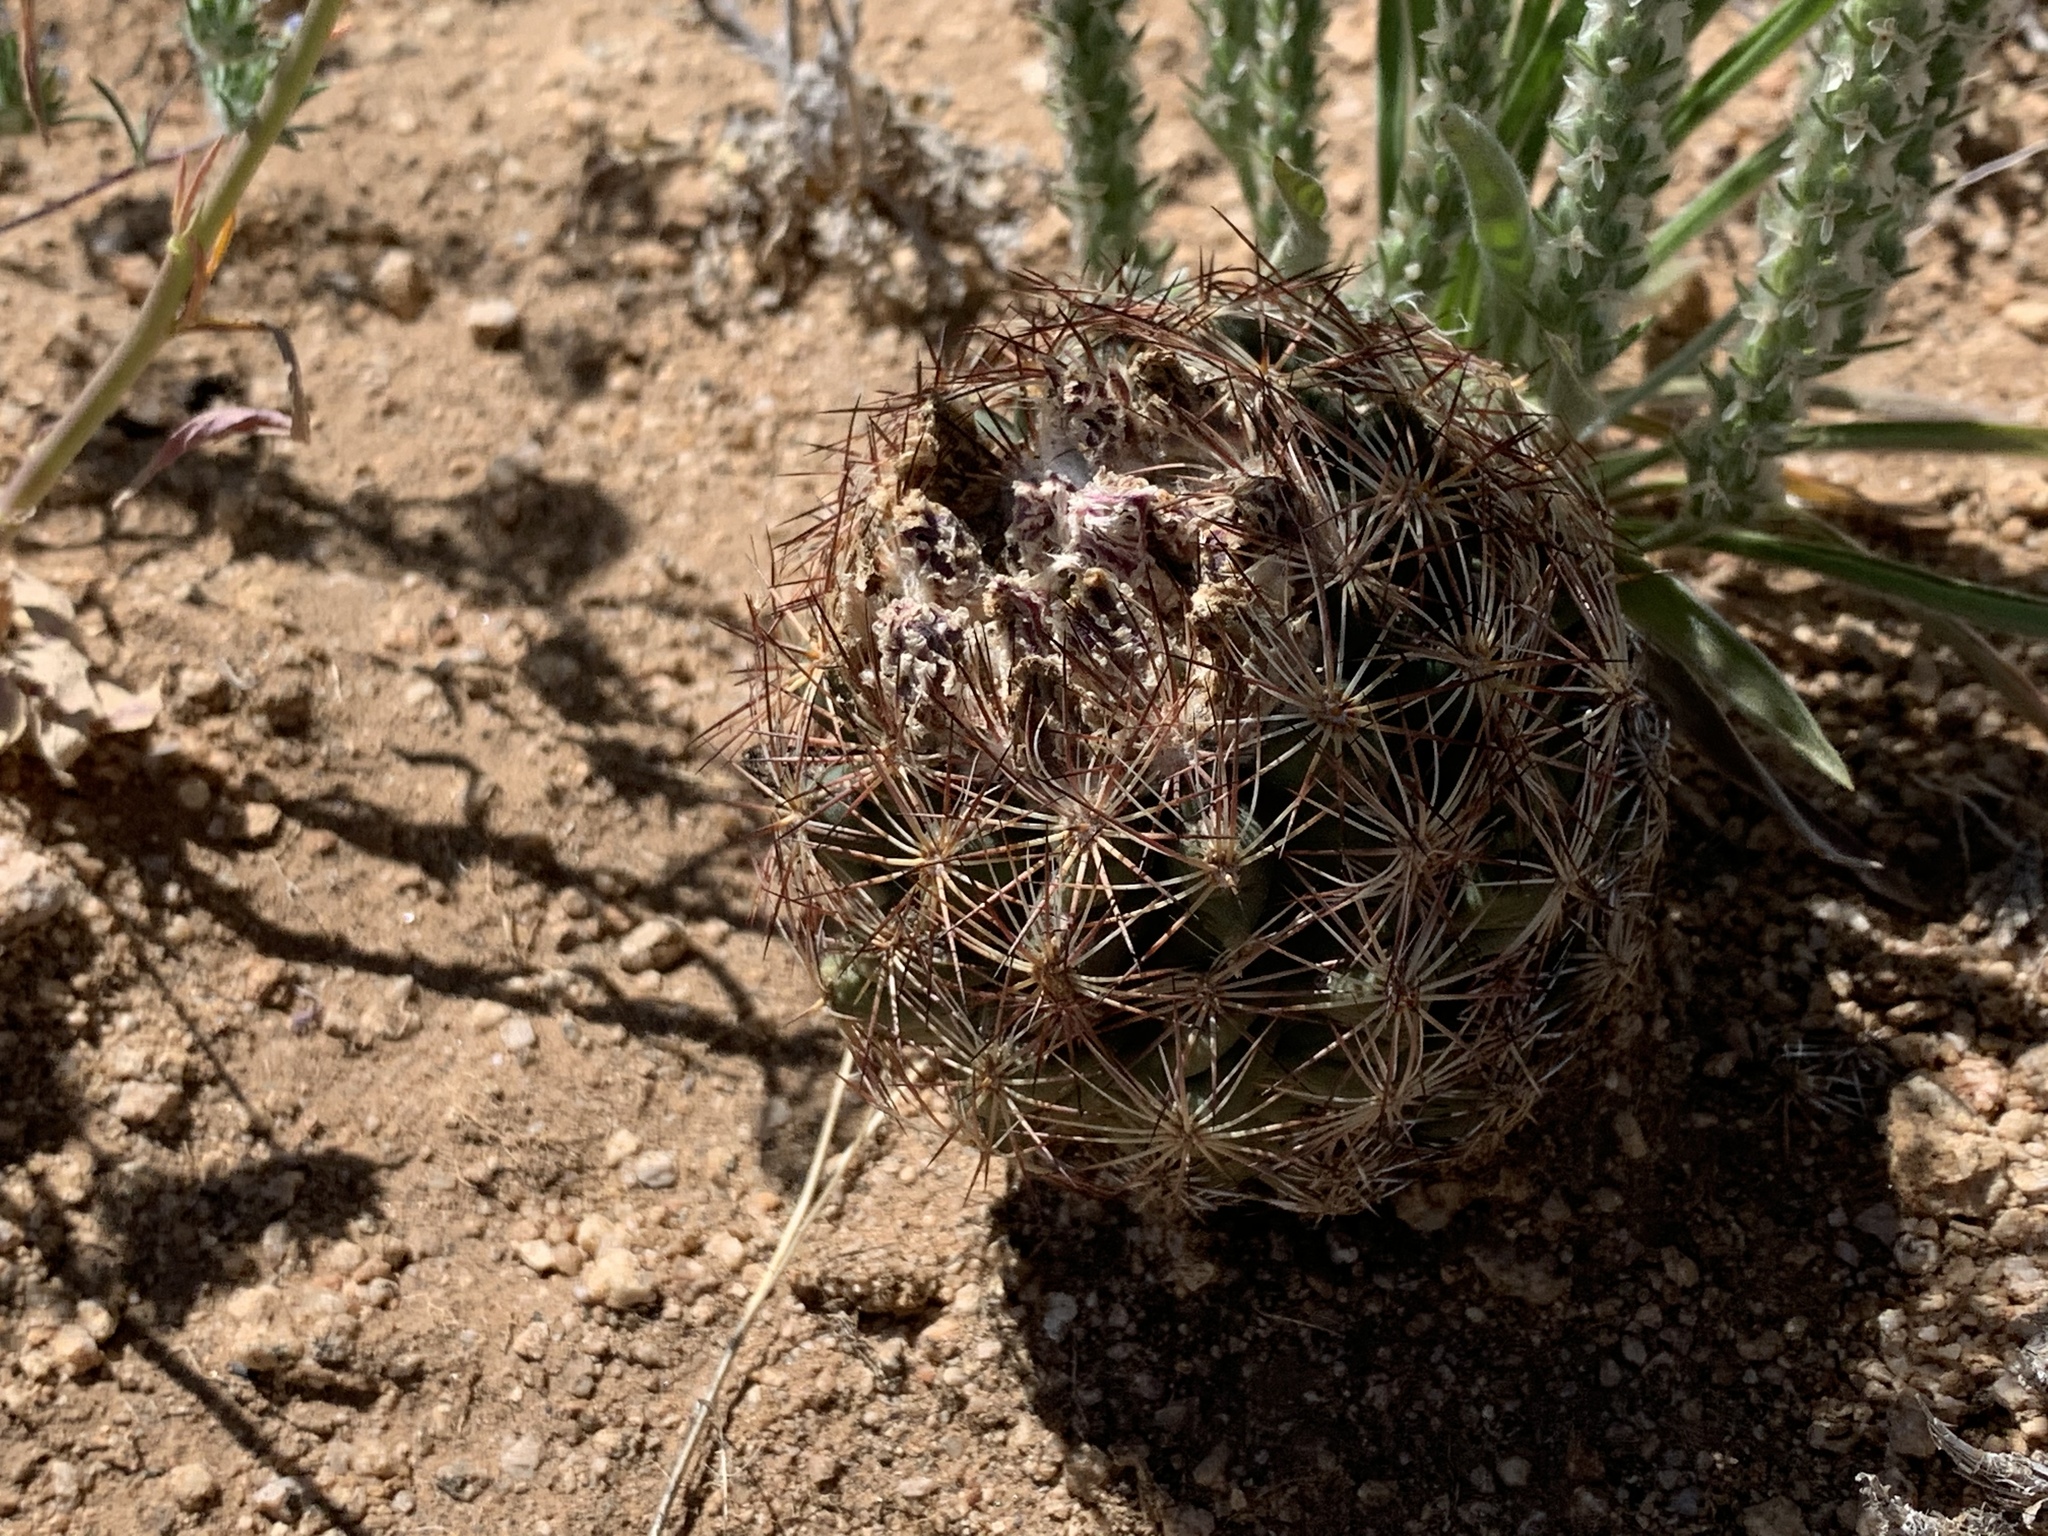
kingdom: Plantae
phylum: Tracheophyta
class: Magnoliopsida
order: Caryophyllales
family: Cactaceae
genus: Sclerocactus
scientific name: Sclerocactus intertextus
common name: White fish-hook cactus
